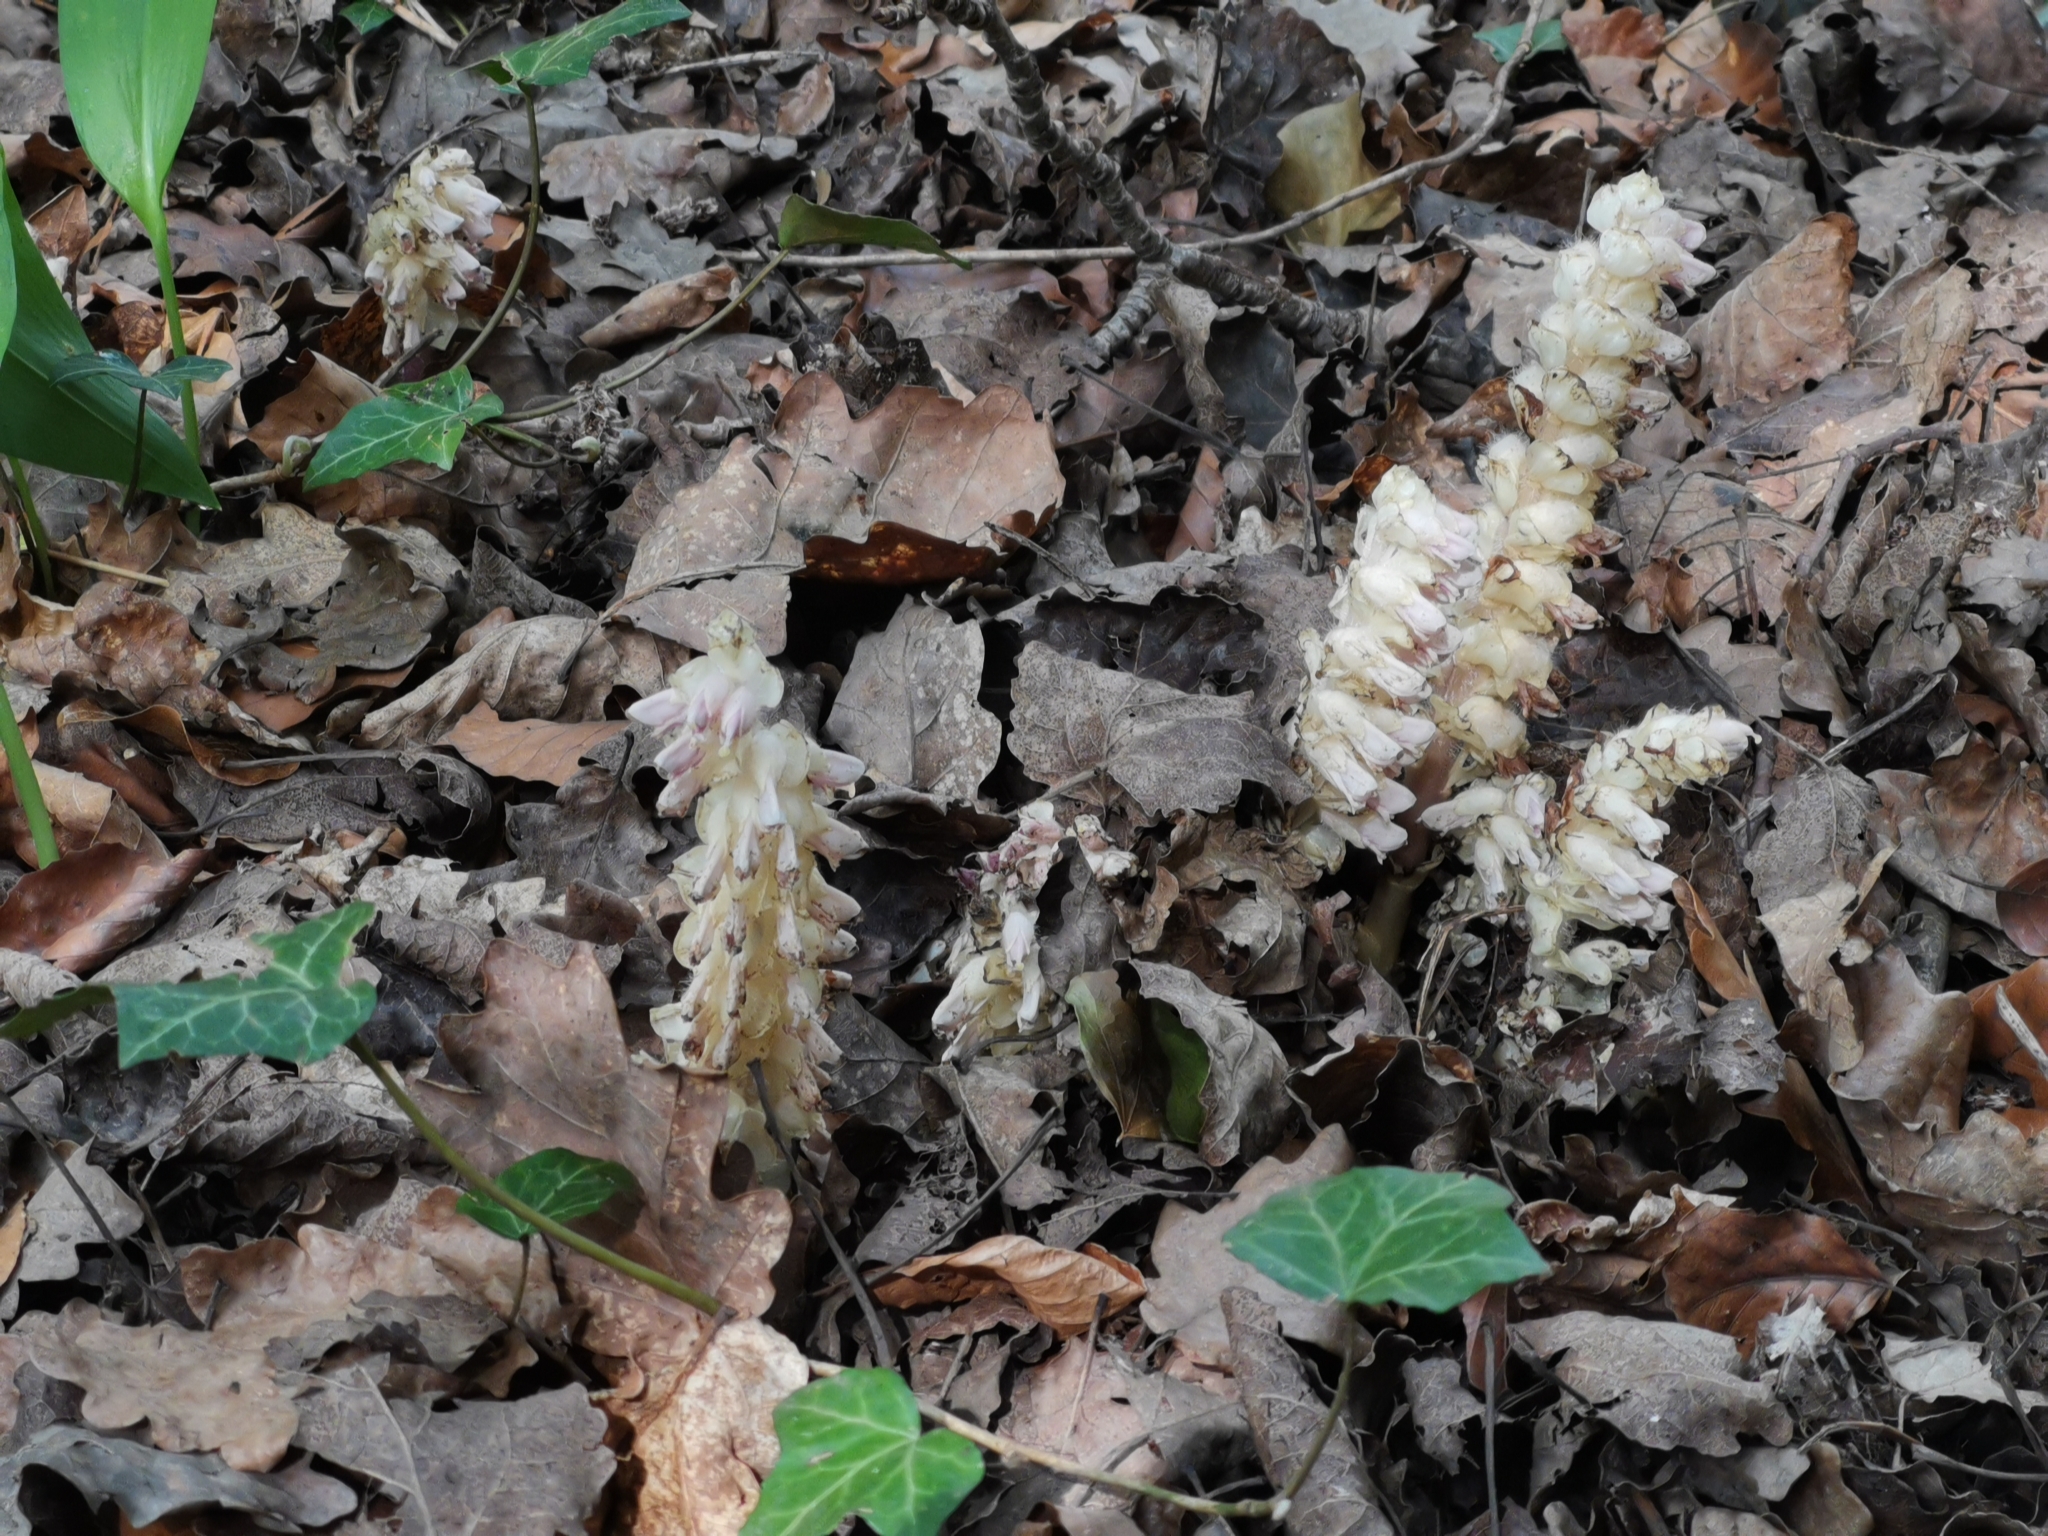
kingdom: Plantae
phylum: Tracheophyta
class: Magnoliopsida
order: Lamiales
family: Orobanchaceae
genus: Lathraea
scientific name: Lathraea squamaria
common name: Toothwort
